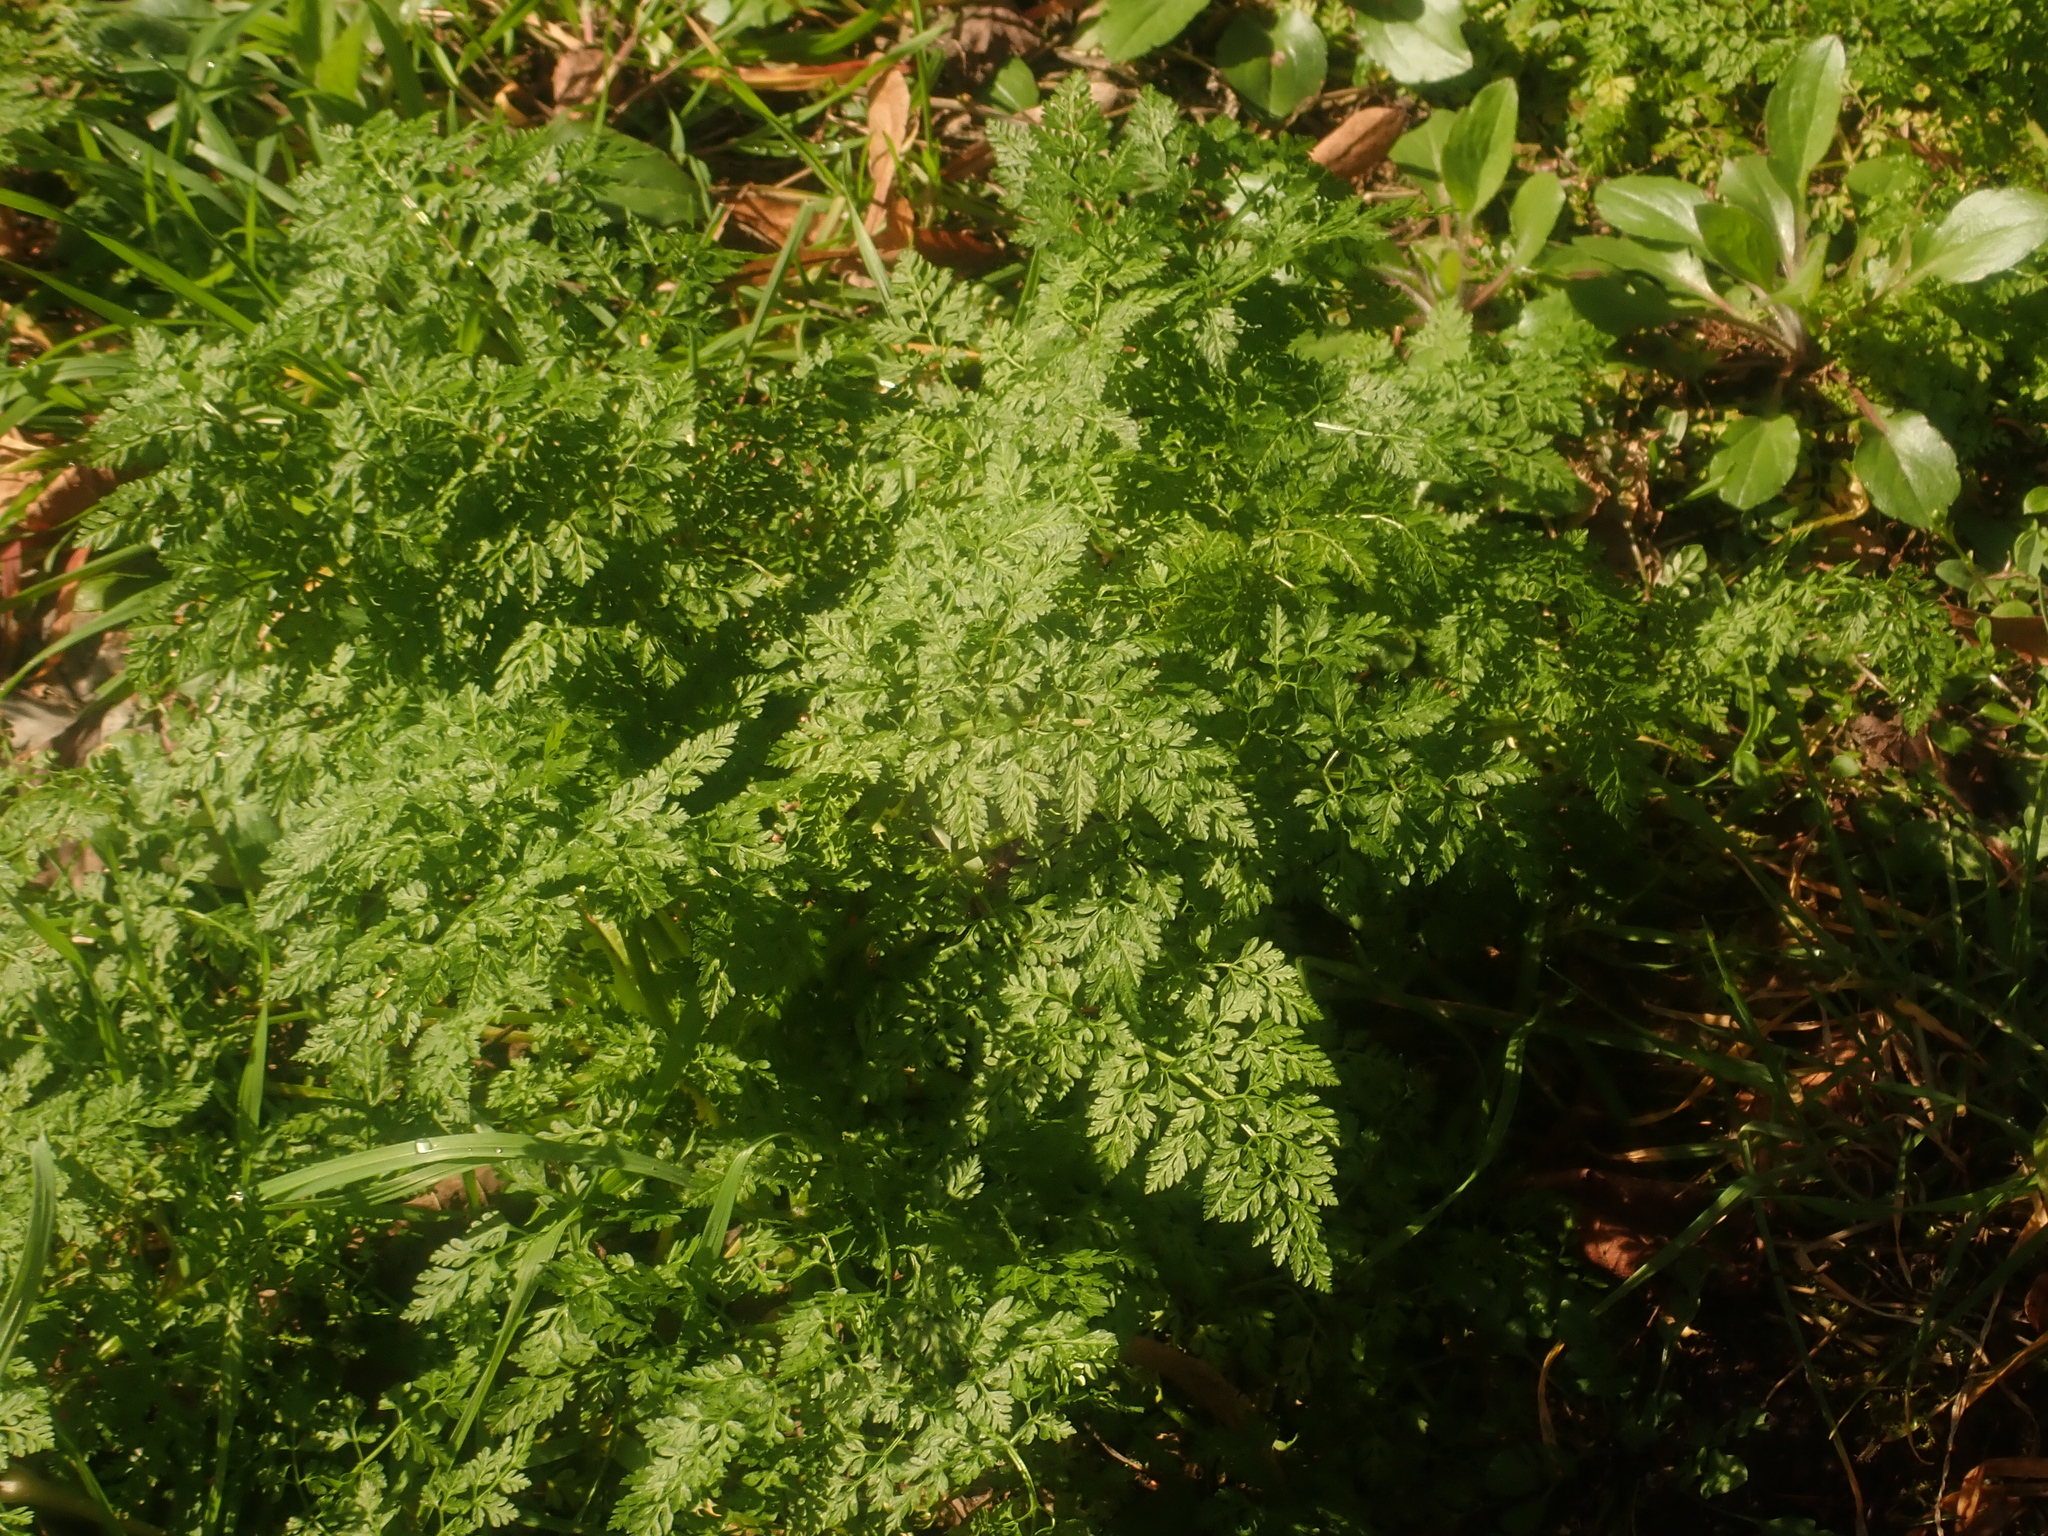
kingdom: Plantae
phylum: Tracheophyta
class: Magnoliopsida
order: Apiales
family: Apiaceae
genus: Anthriscus
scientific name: Anthriscus caucalis
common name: Bur chervil
